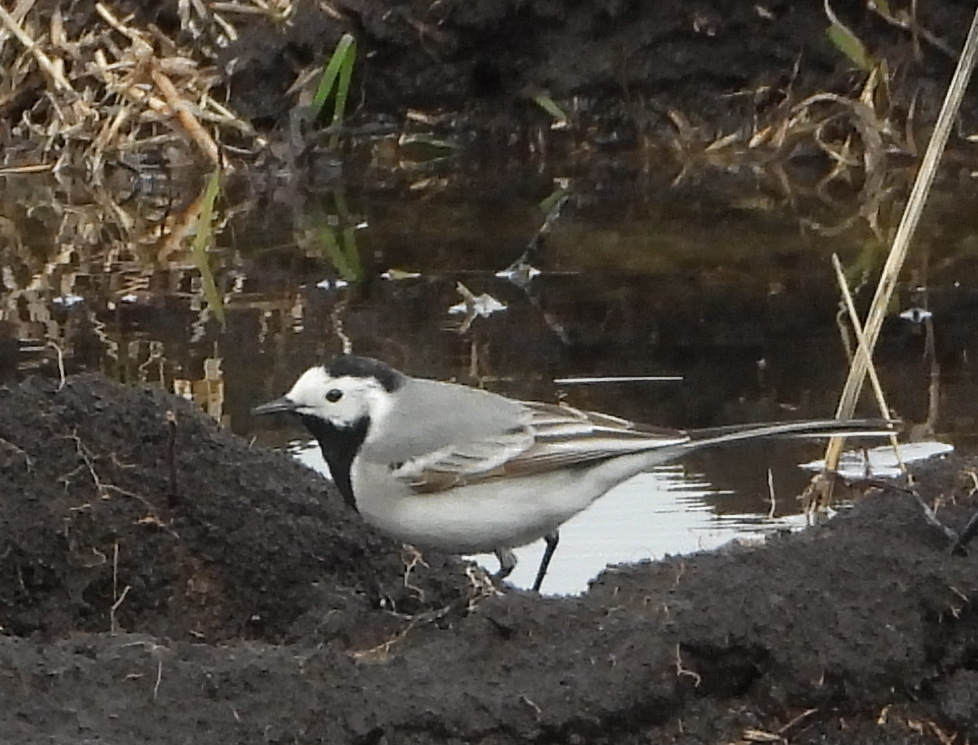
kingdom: Animalia
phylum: Chordata
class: Aves
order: Passeriformes
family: Motacillidae
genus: Motacilla
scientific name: Motacilla alba
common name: White wagtail
